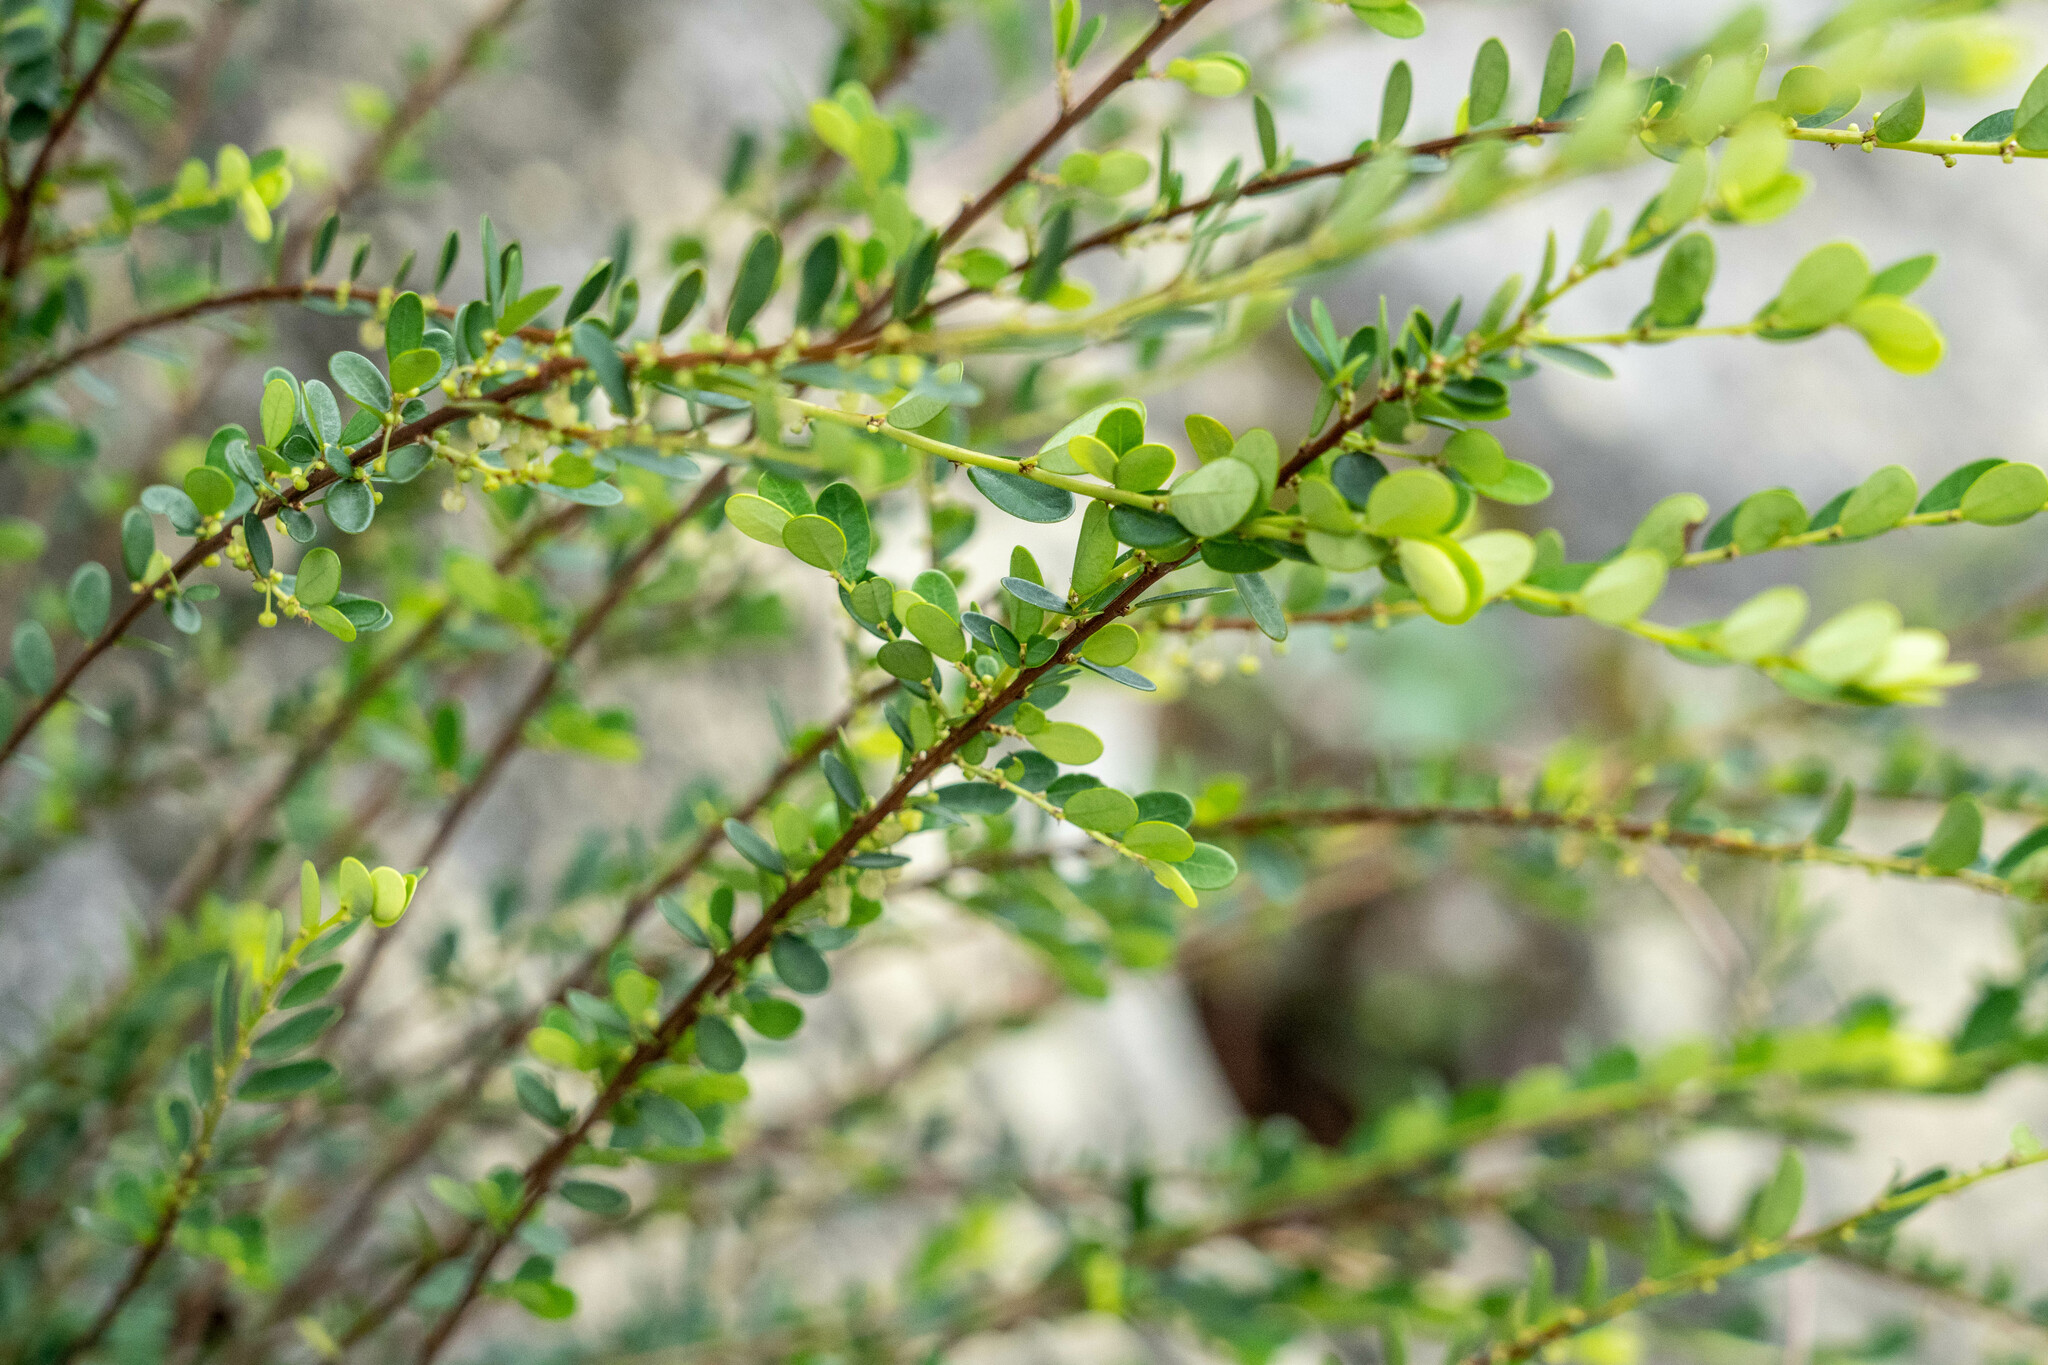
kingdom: Plantae
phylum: Tracheophyta
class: Magnoliopsida
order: Malpighiales
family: Phyllanthaceae
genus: Phyllanthus
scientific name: Phyllanthus cochinchinensis
